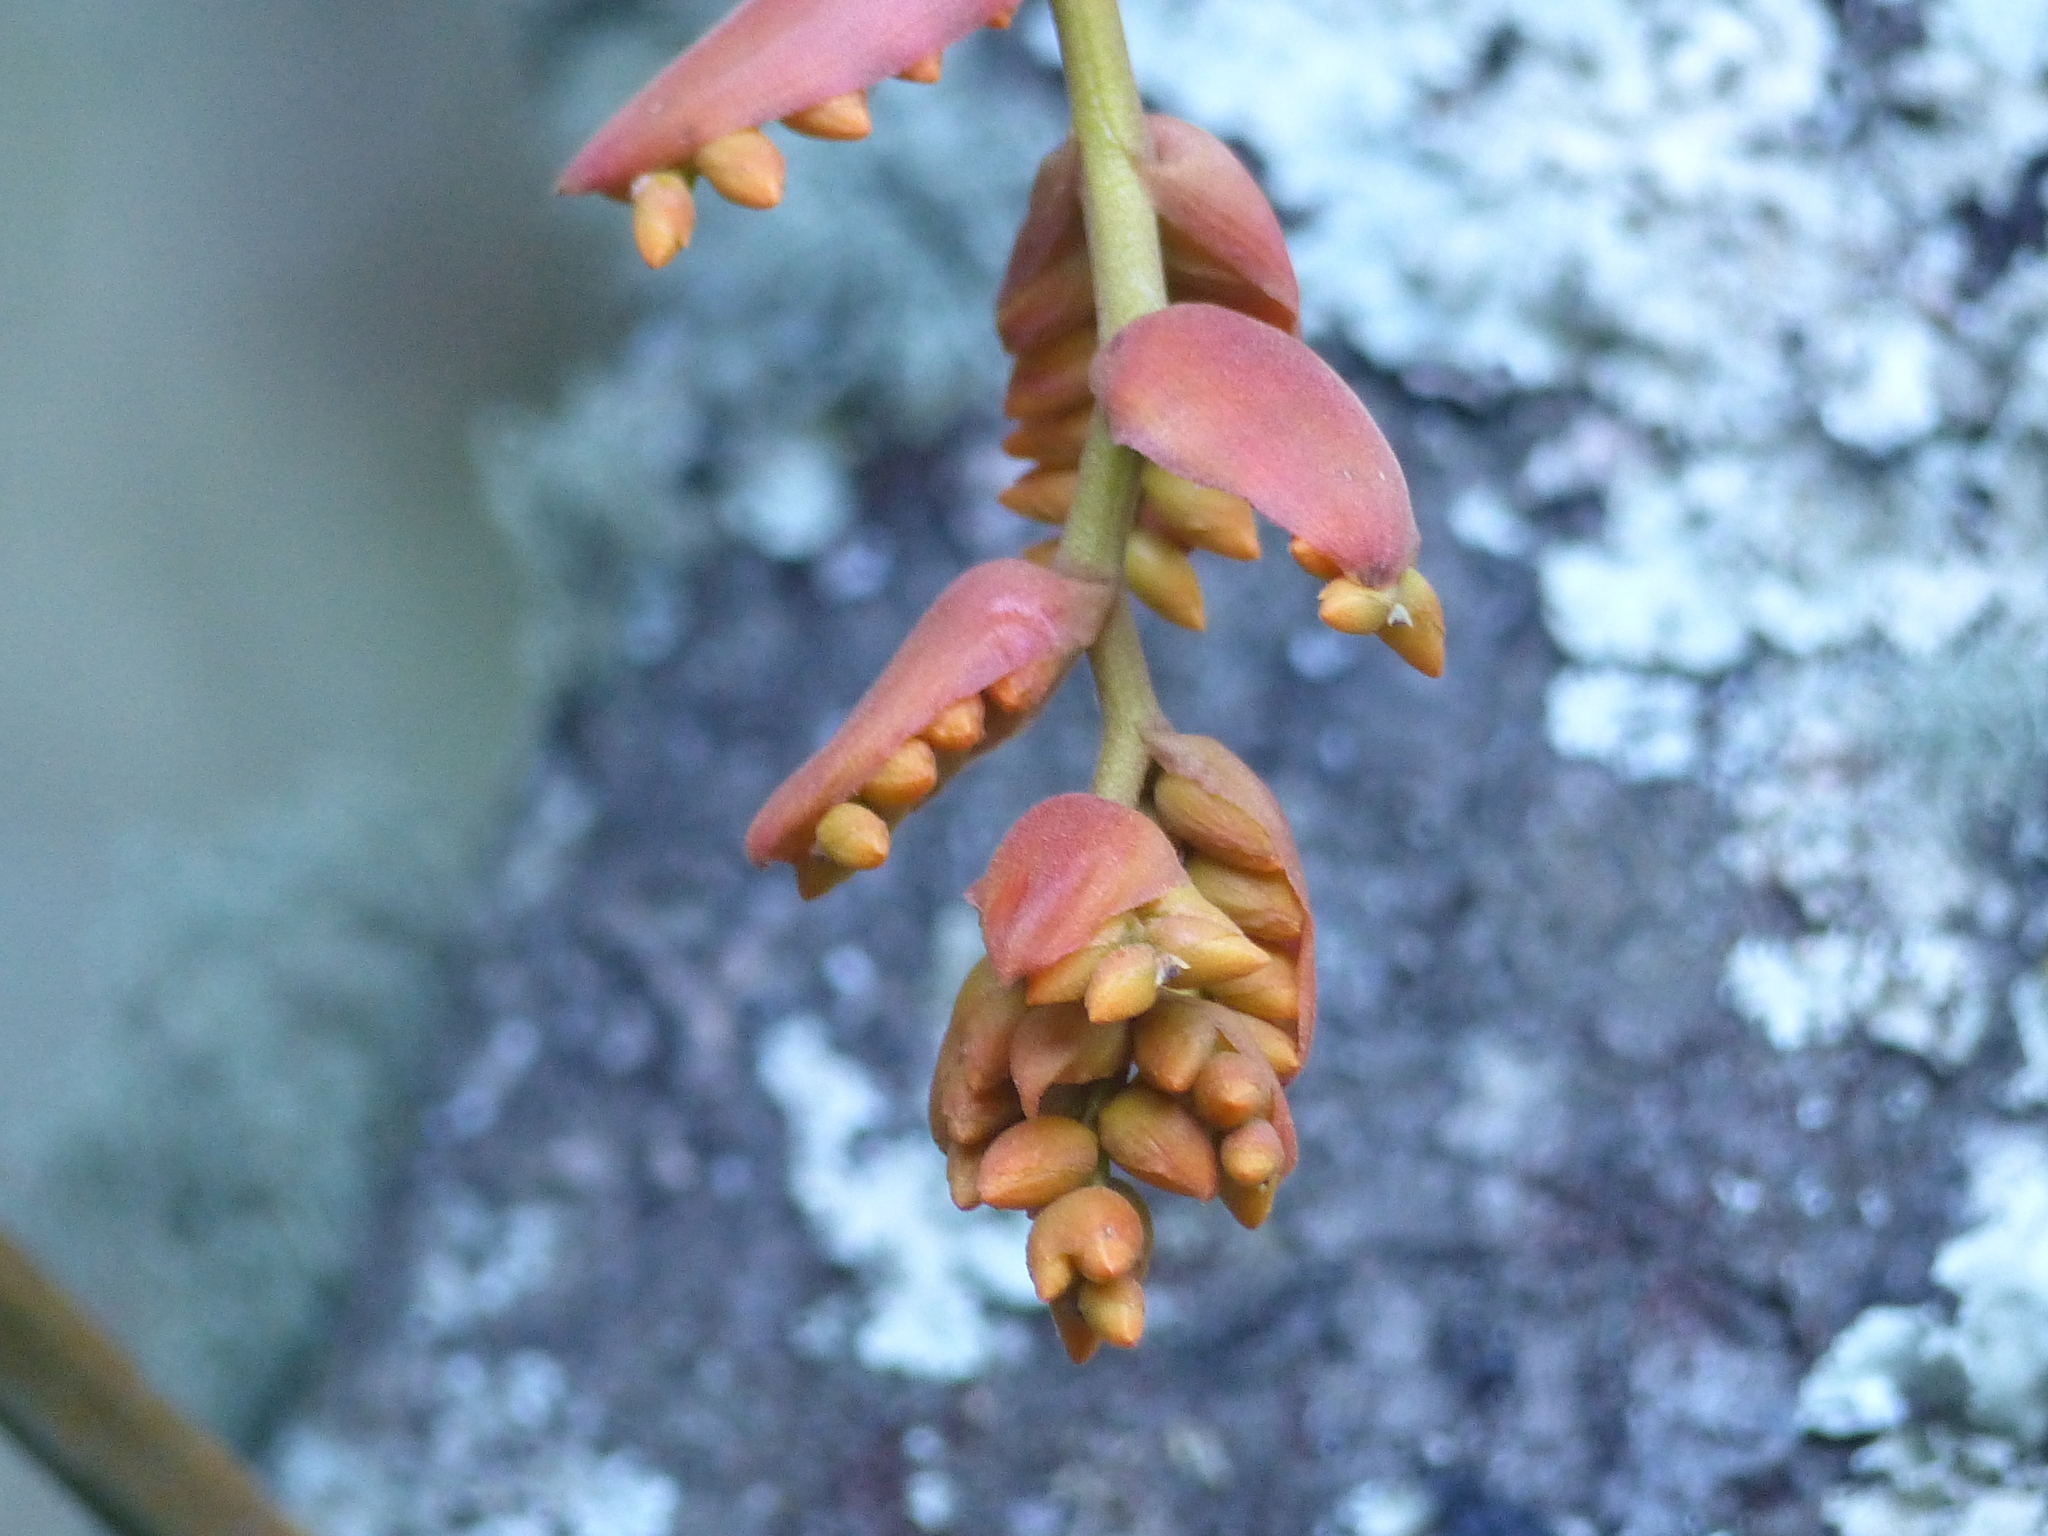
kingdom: Plantae
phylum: Tracheophyta
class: Liliopsida
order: Poales
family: Bromeliaceae
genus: Racinaea
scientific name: Racinaea tetrantha
